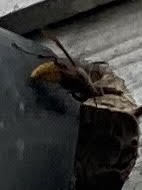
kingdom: Animalia
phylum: Arthropoda
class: Insecta
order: Hymenoptera
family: Vespidae
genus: Vespa
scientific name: Vespa crabro
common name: Hornet
